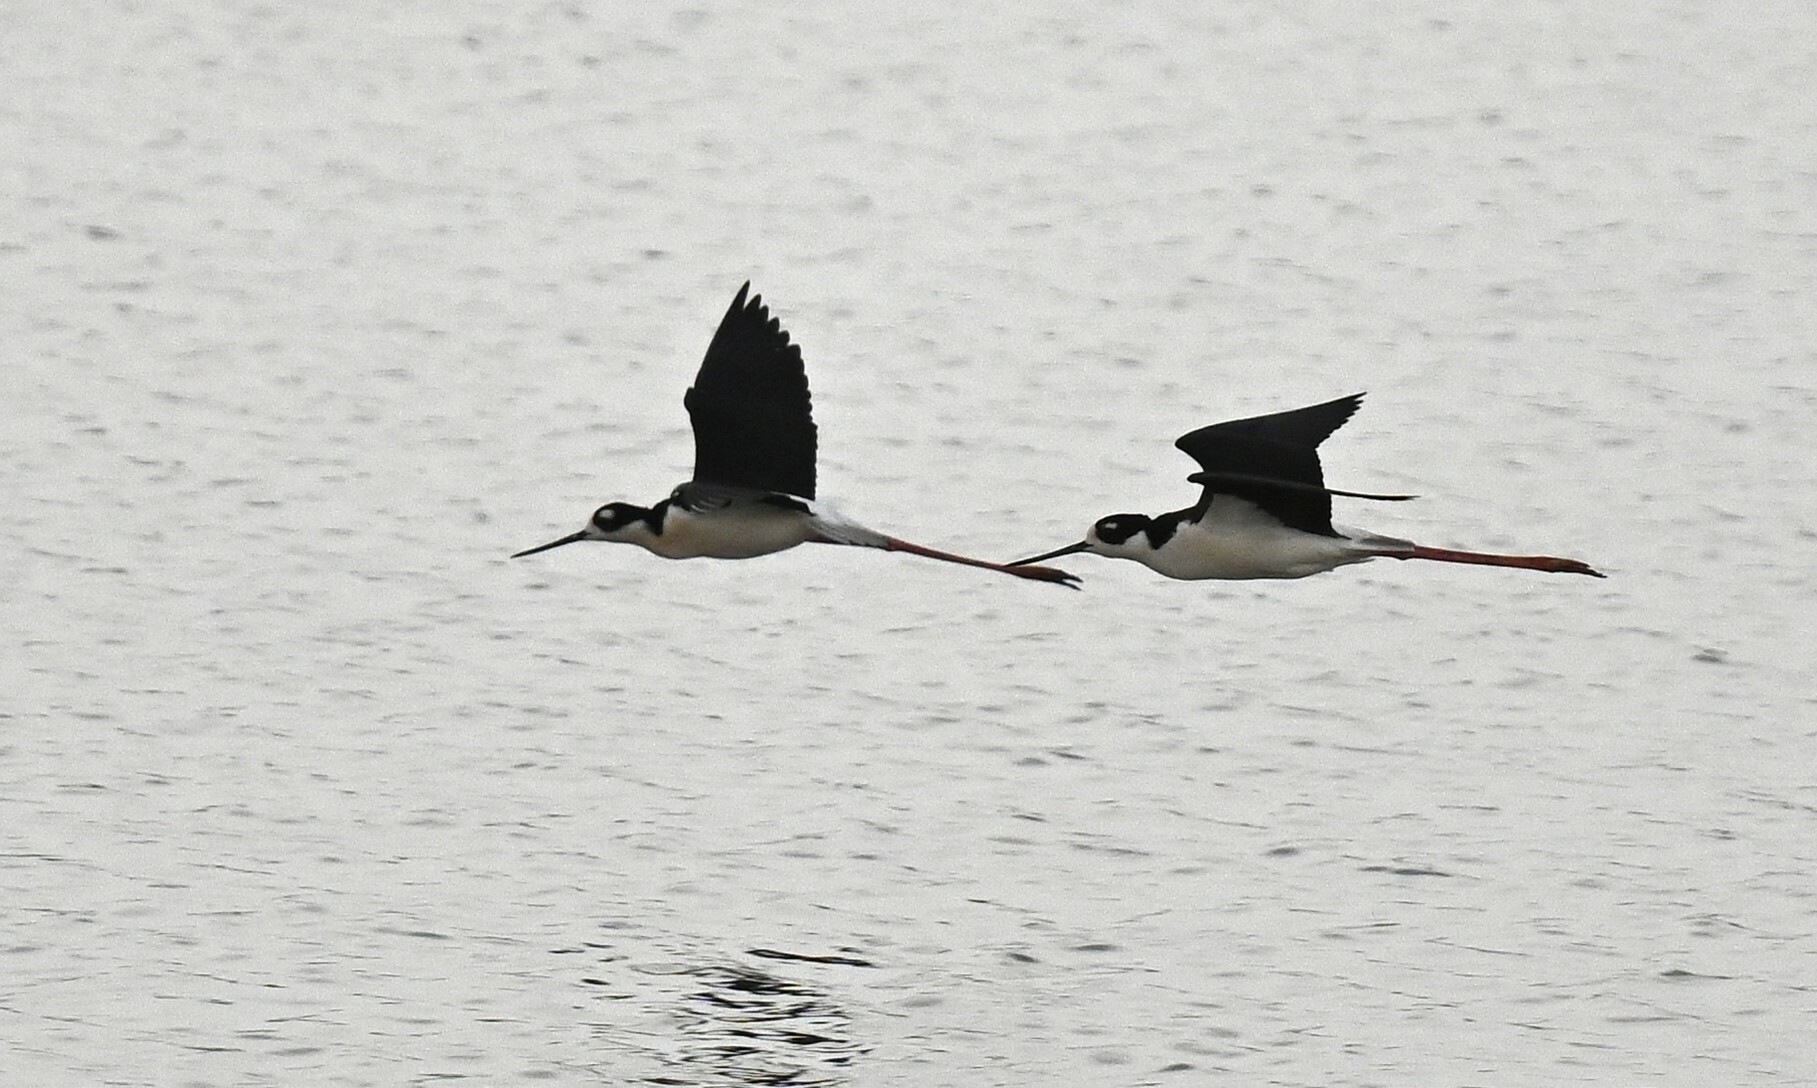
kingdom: Animalia
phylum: Chordata
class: Aves
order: Charadriiformes
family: Recurvirostridae
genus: Himantopus
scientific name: Himantopus mexicanus
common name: Black-necked stilt
